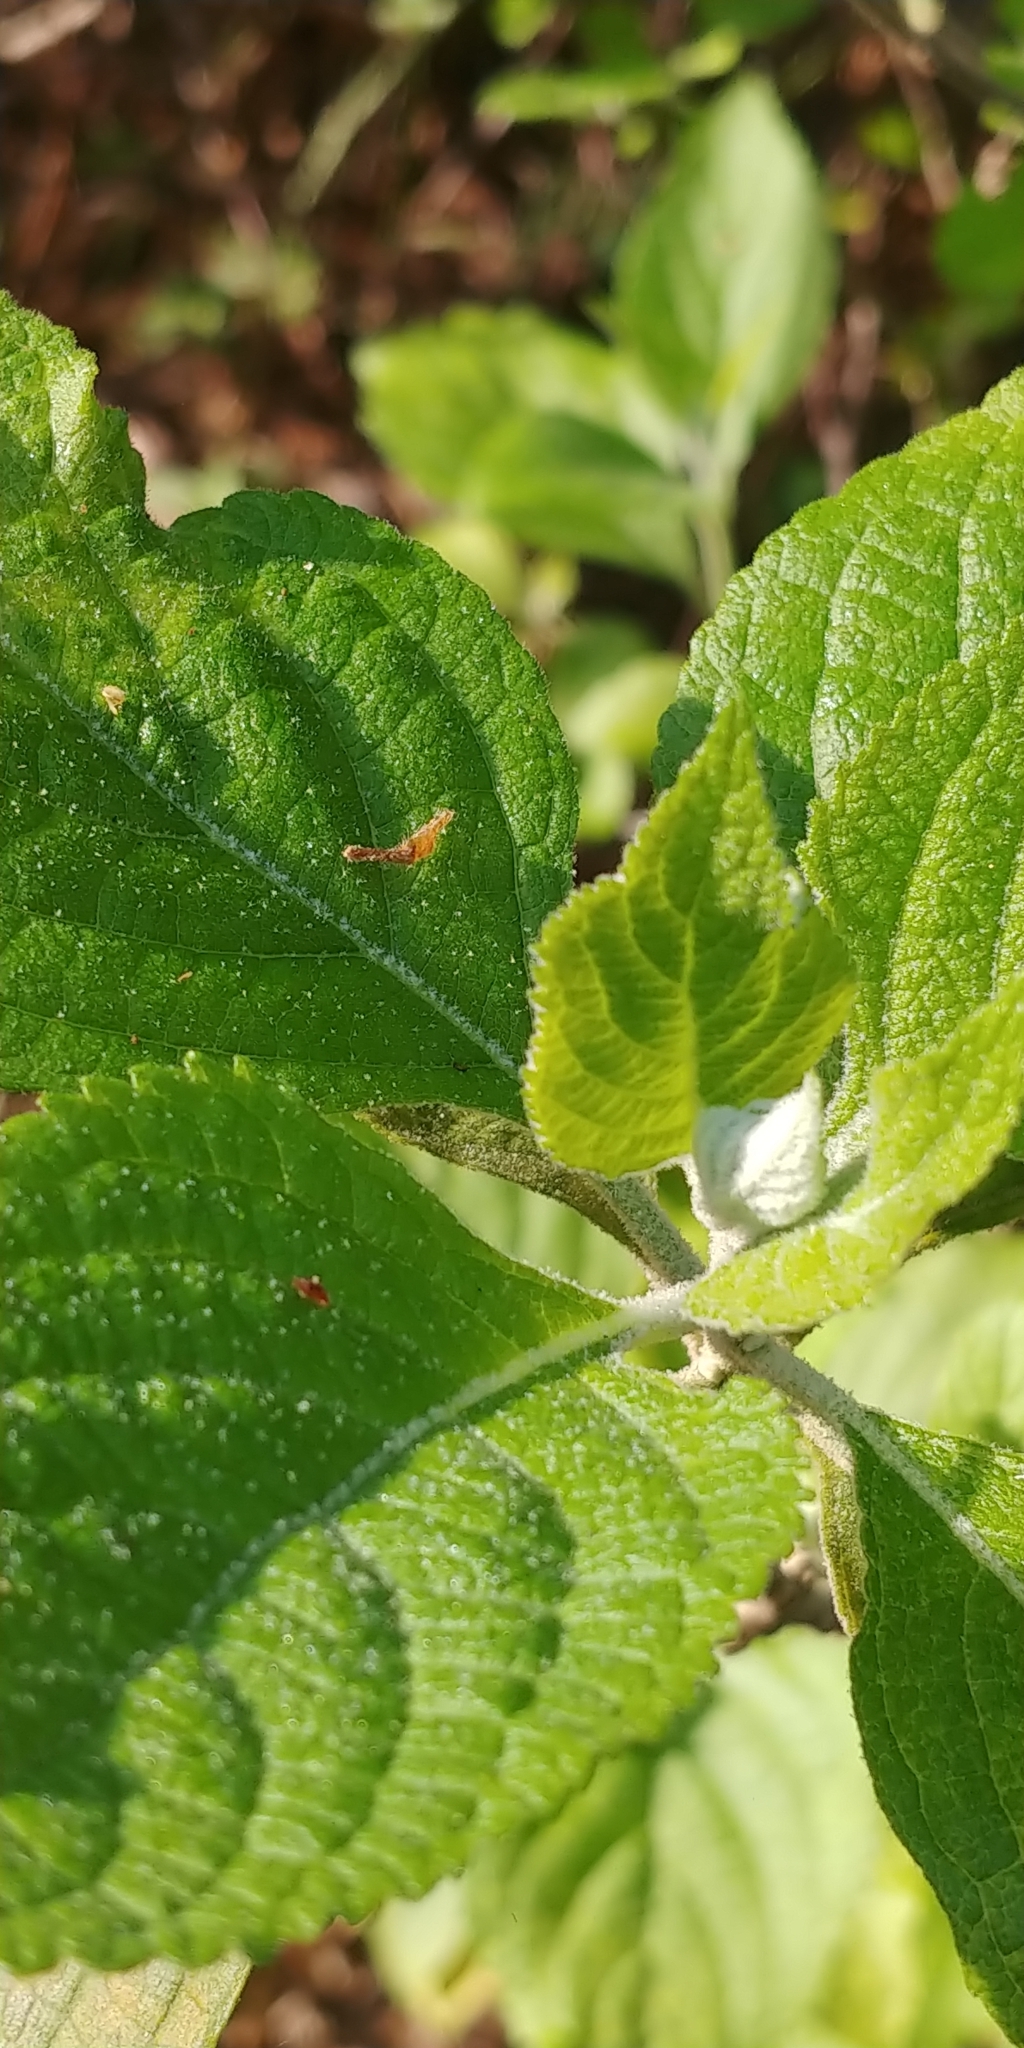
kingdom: Plantae
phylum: Tracheophyta
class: Magnoliopsida
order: Lamiales
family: Lamiaceae
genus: Callicarpa
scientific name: Callicarpa americana
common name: American beautyberry
